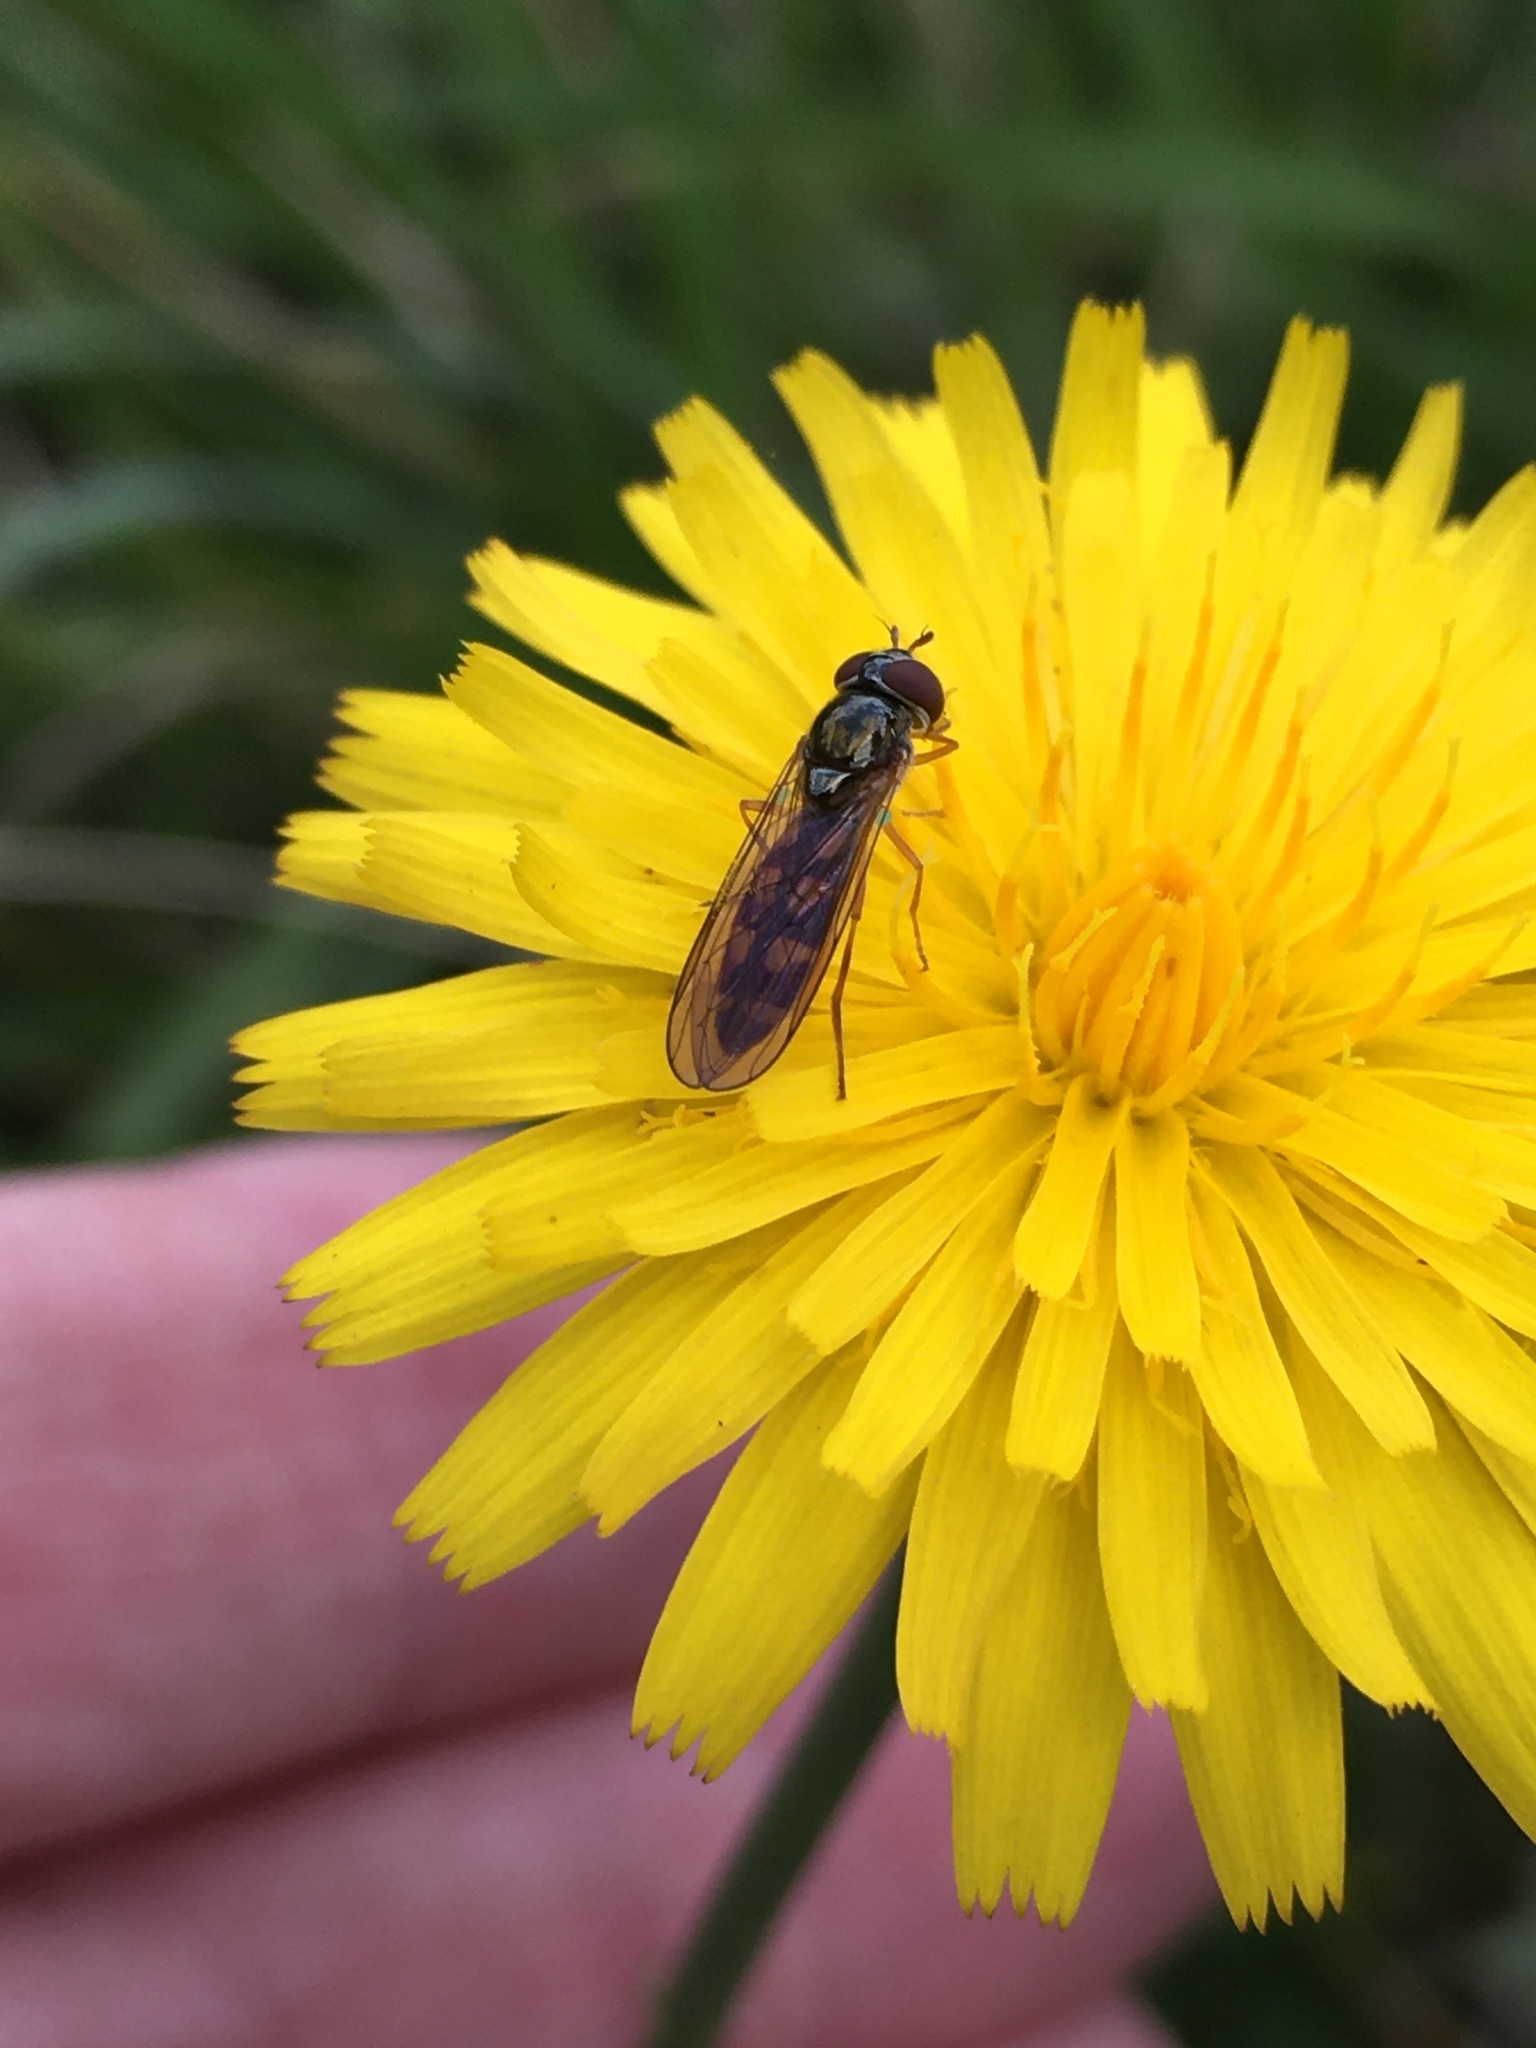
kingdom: Animalia
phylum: Arthropoda
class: Insecta
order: Diptera
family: Syrphidae
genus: Melanostoma
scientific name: Melanostoma mellina
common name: Hover fly
